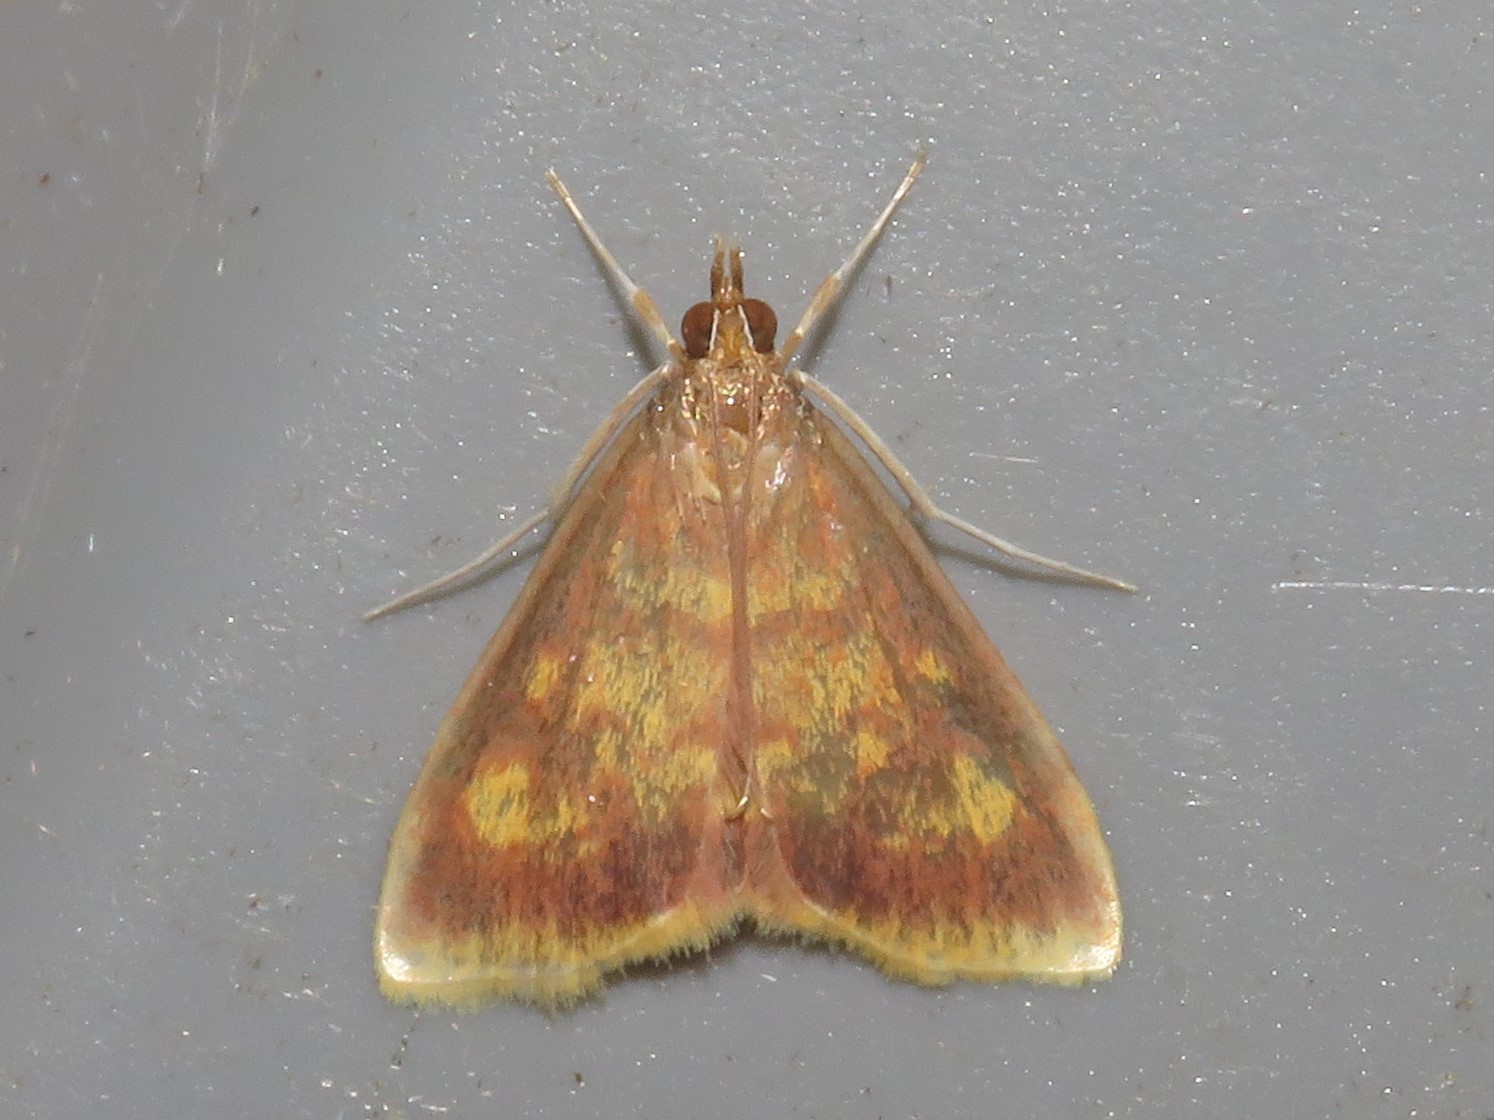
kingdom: Animalia
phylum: Arthropoda
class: Insecta
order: Lepidoptera
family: Crambidae
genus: Pyrausta
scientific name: Pyrausta acrionalis
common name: Mint-loving pyrausta moth
